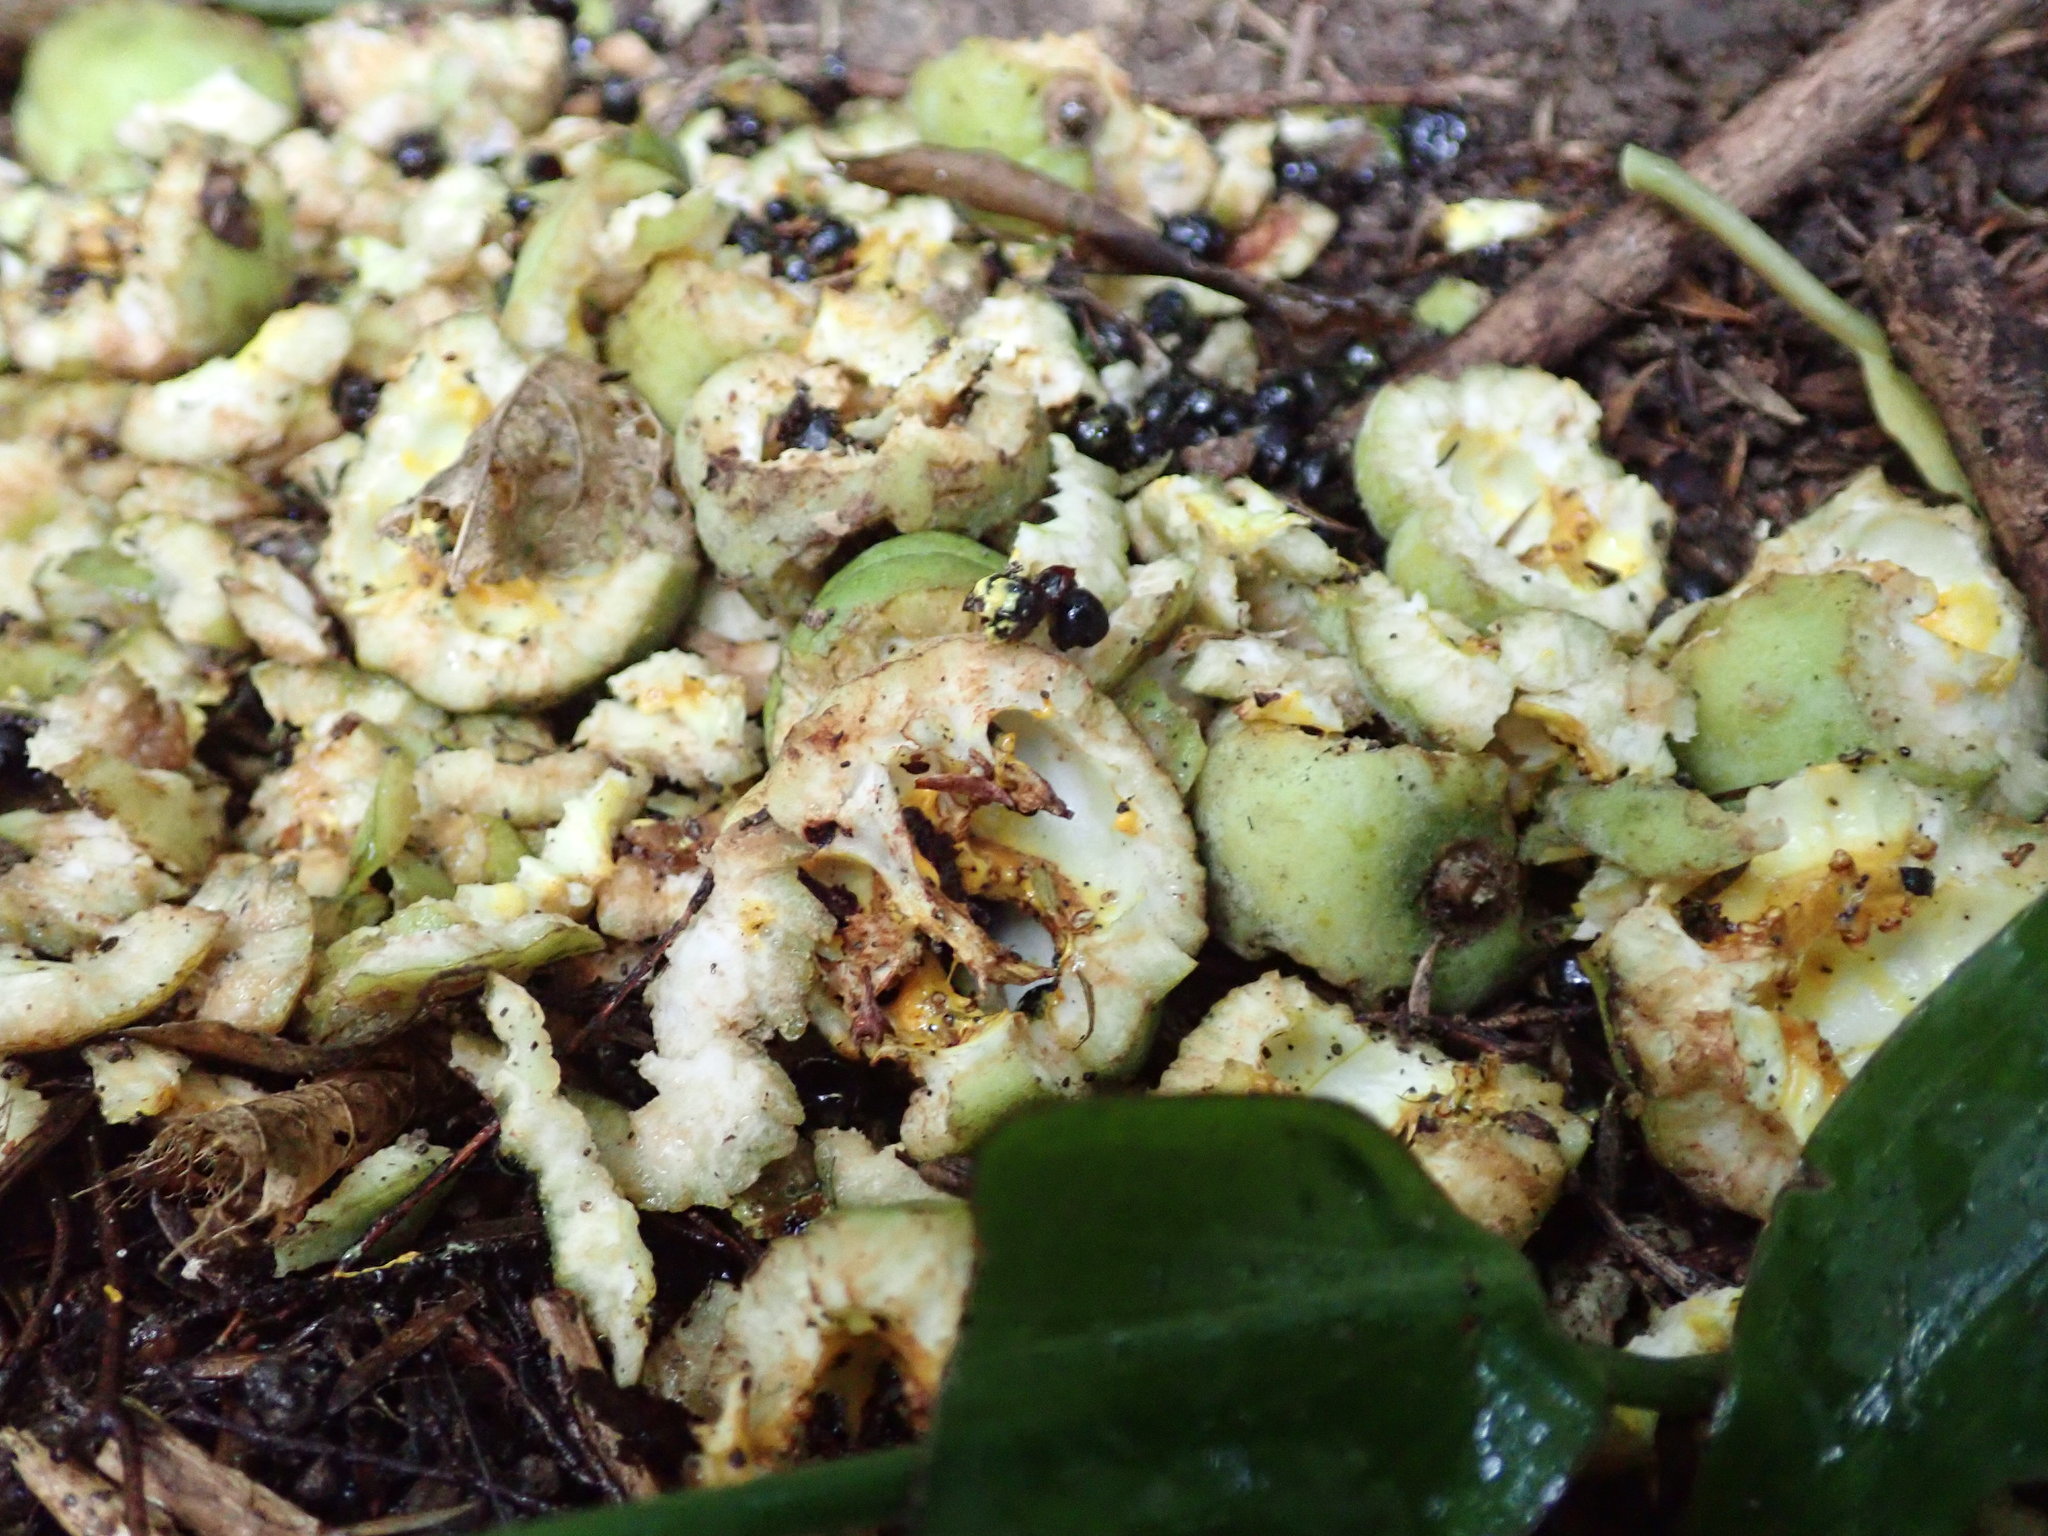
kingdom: Plantae
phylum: Tracheophyta
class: Magnoliopsida
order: Apiales
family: Pittosporaceae
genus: Pittosporum
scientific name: Pittosporum crassifolium
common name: Karo
